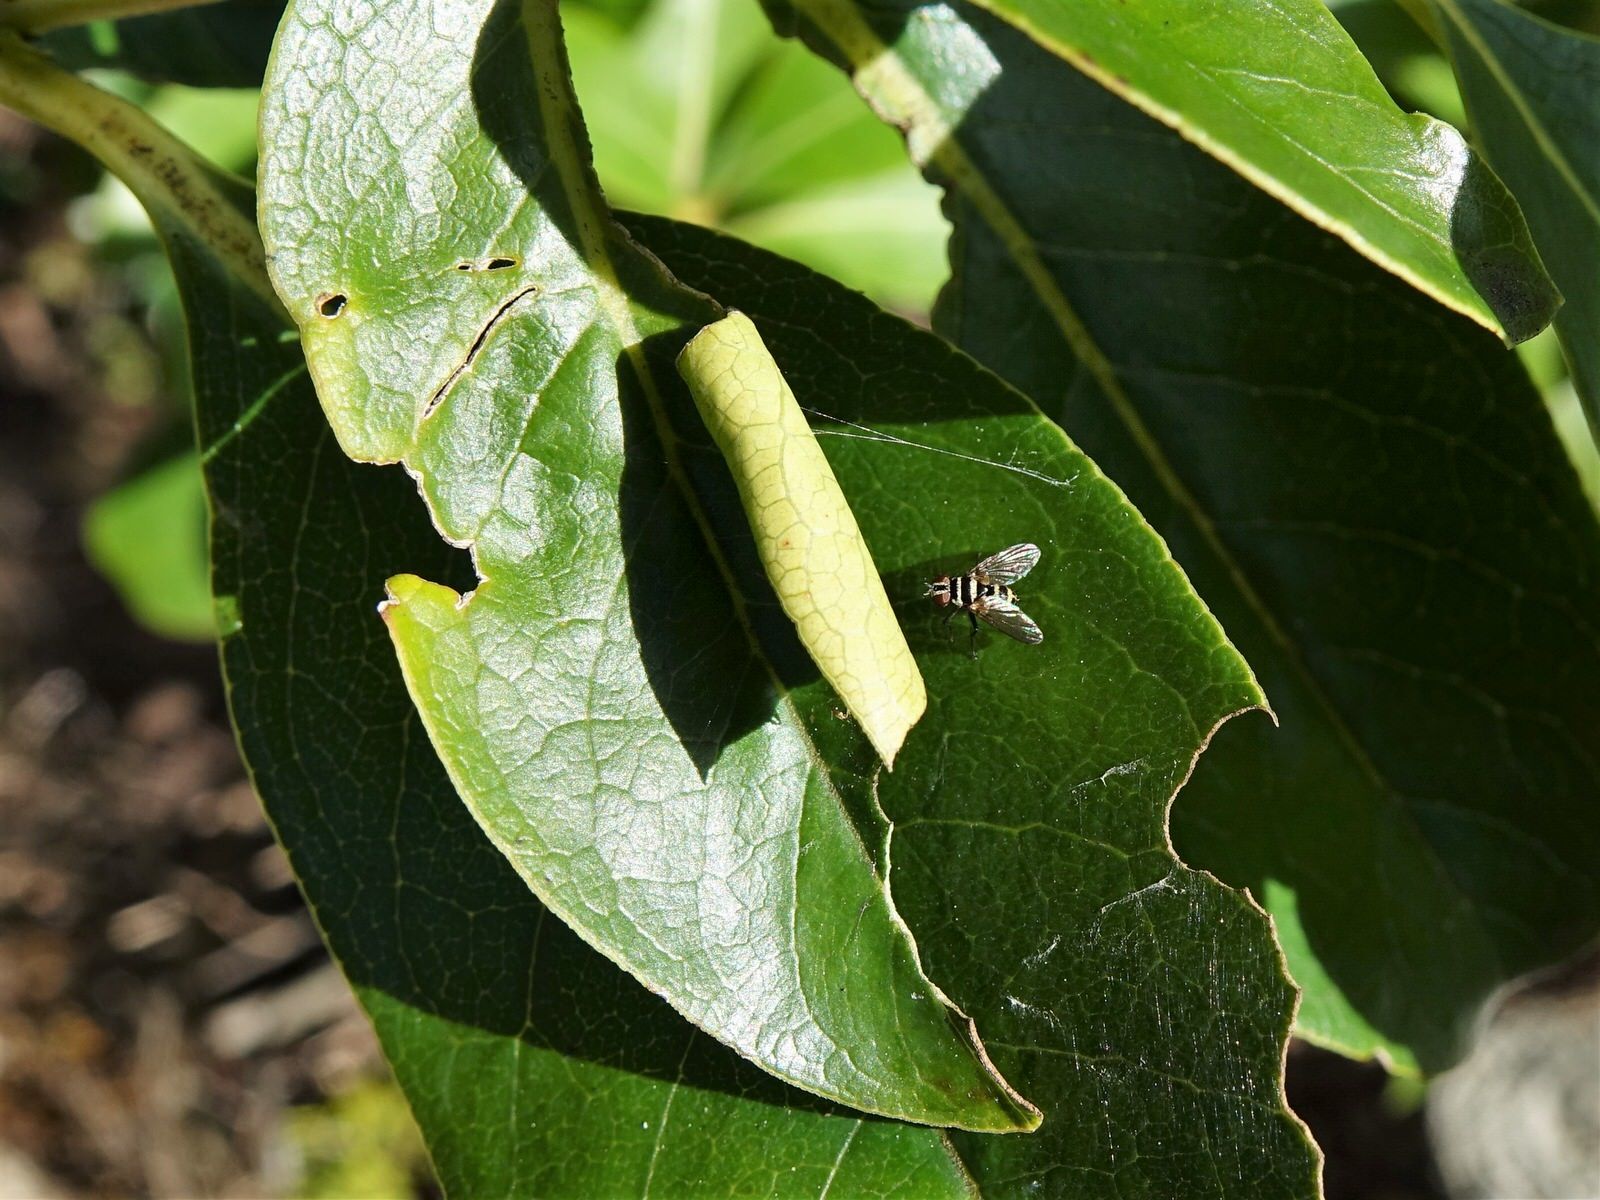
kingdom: Animalia
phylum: Arthropoda
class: Insecta
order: Diptera
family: Tachinidae
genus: Trigonospila
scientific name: Trigonospila brevifacies
